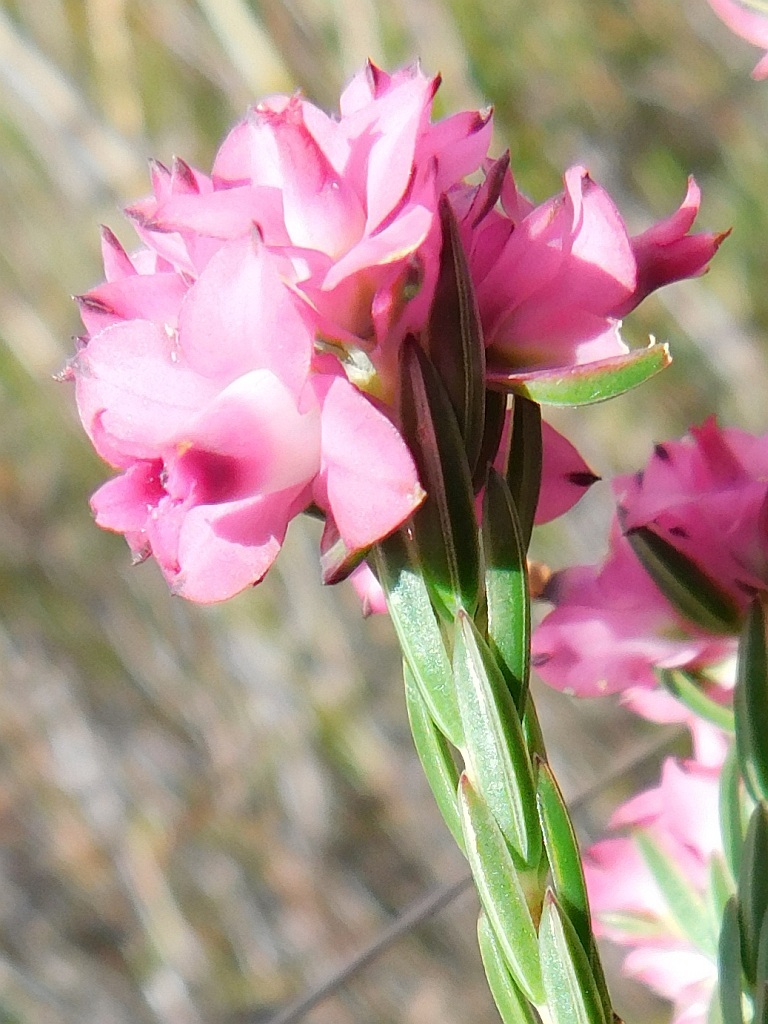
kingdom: Plantae
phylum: Tracheophyta
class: Magnoliopsida
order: Ericales
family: Ericaceae
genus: Erica
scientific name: Erica corifolia
